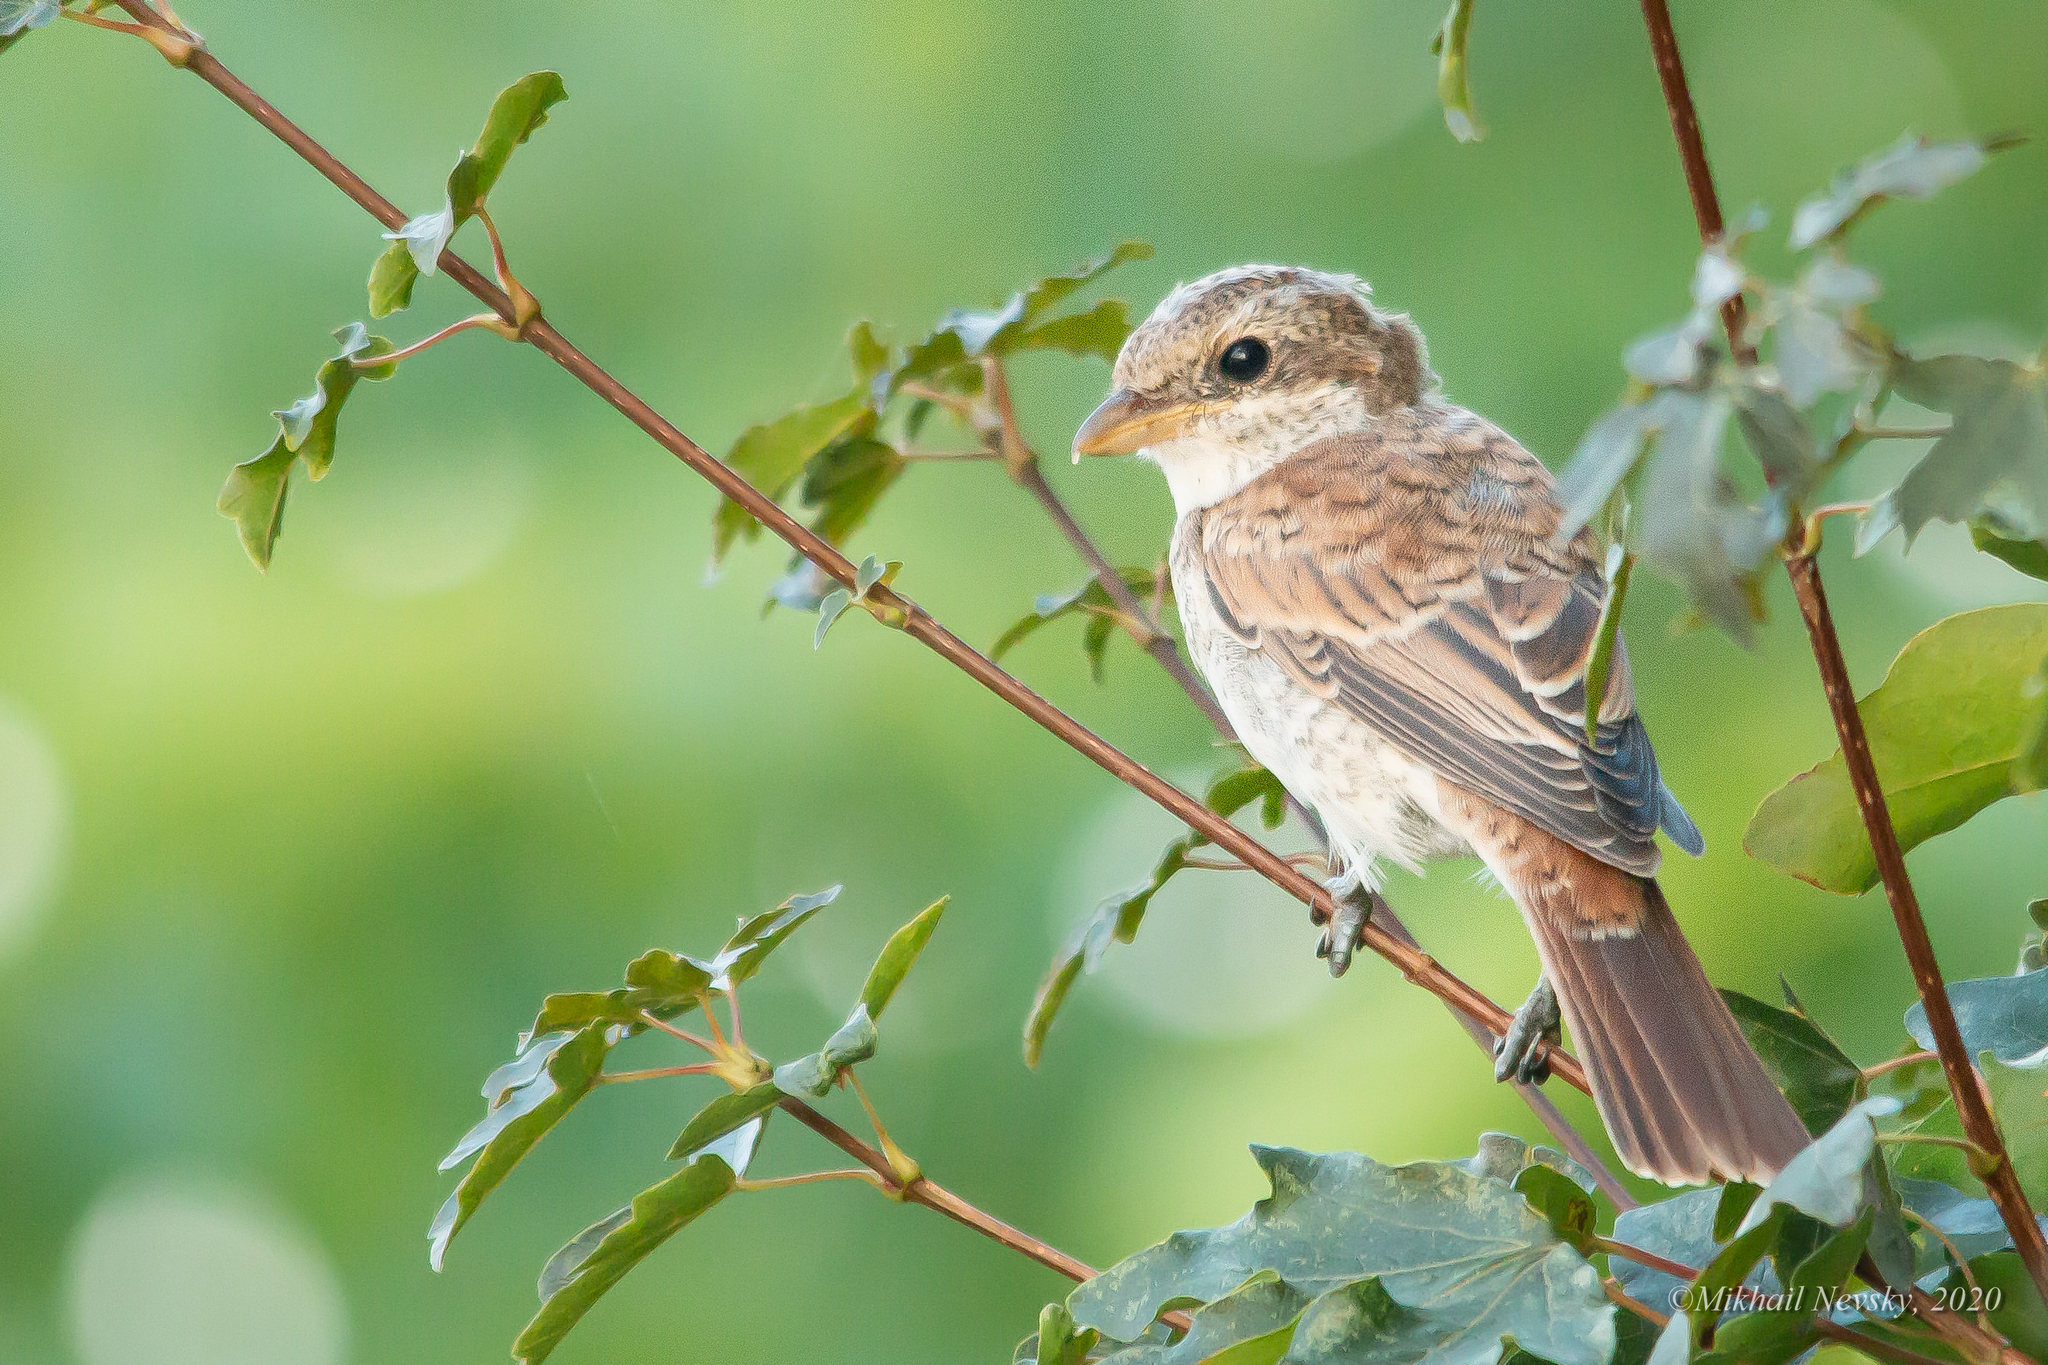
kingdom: Animalia
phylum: Chordata
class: Aves
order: Passeriformes
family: Laniidae
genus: Lanius
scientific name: Lanius collurio
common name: Red-backed shrike
